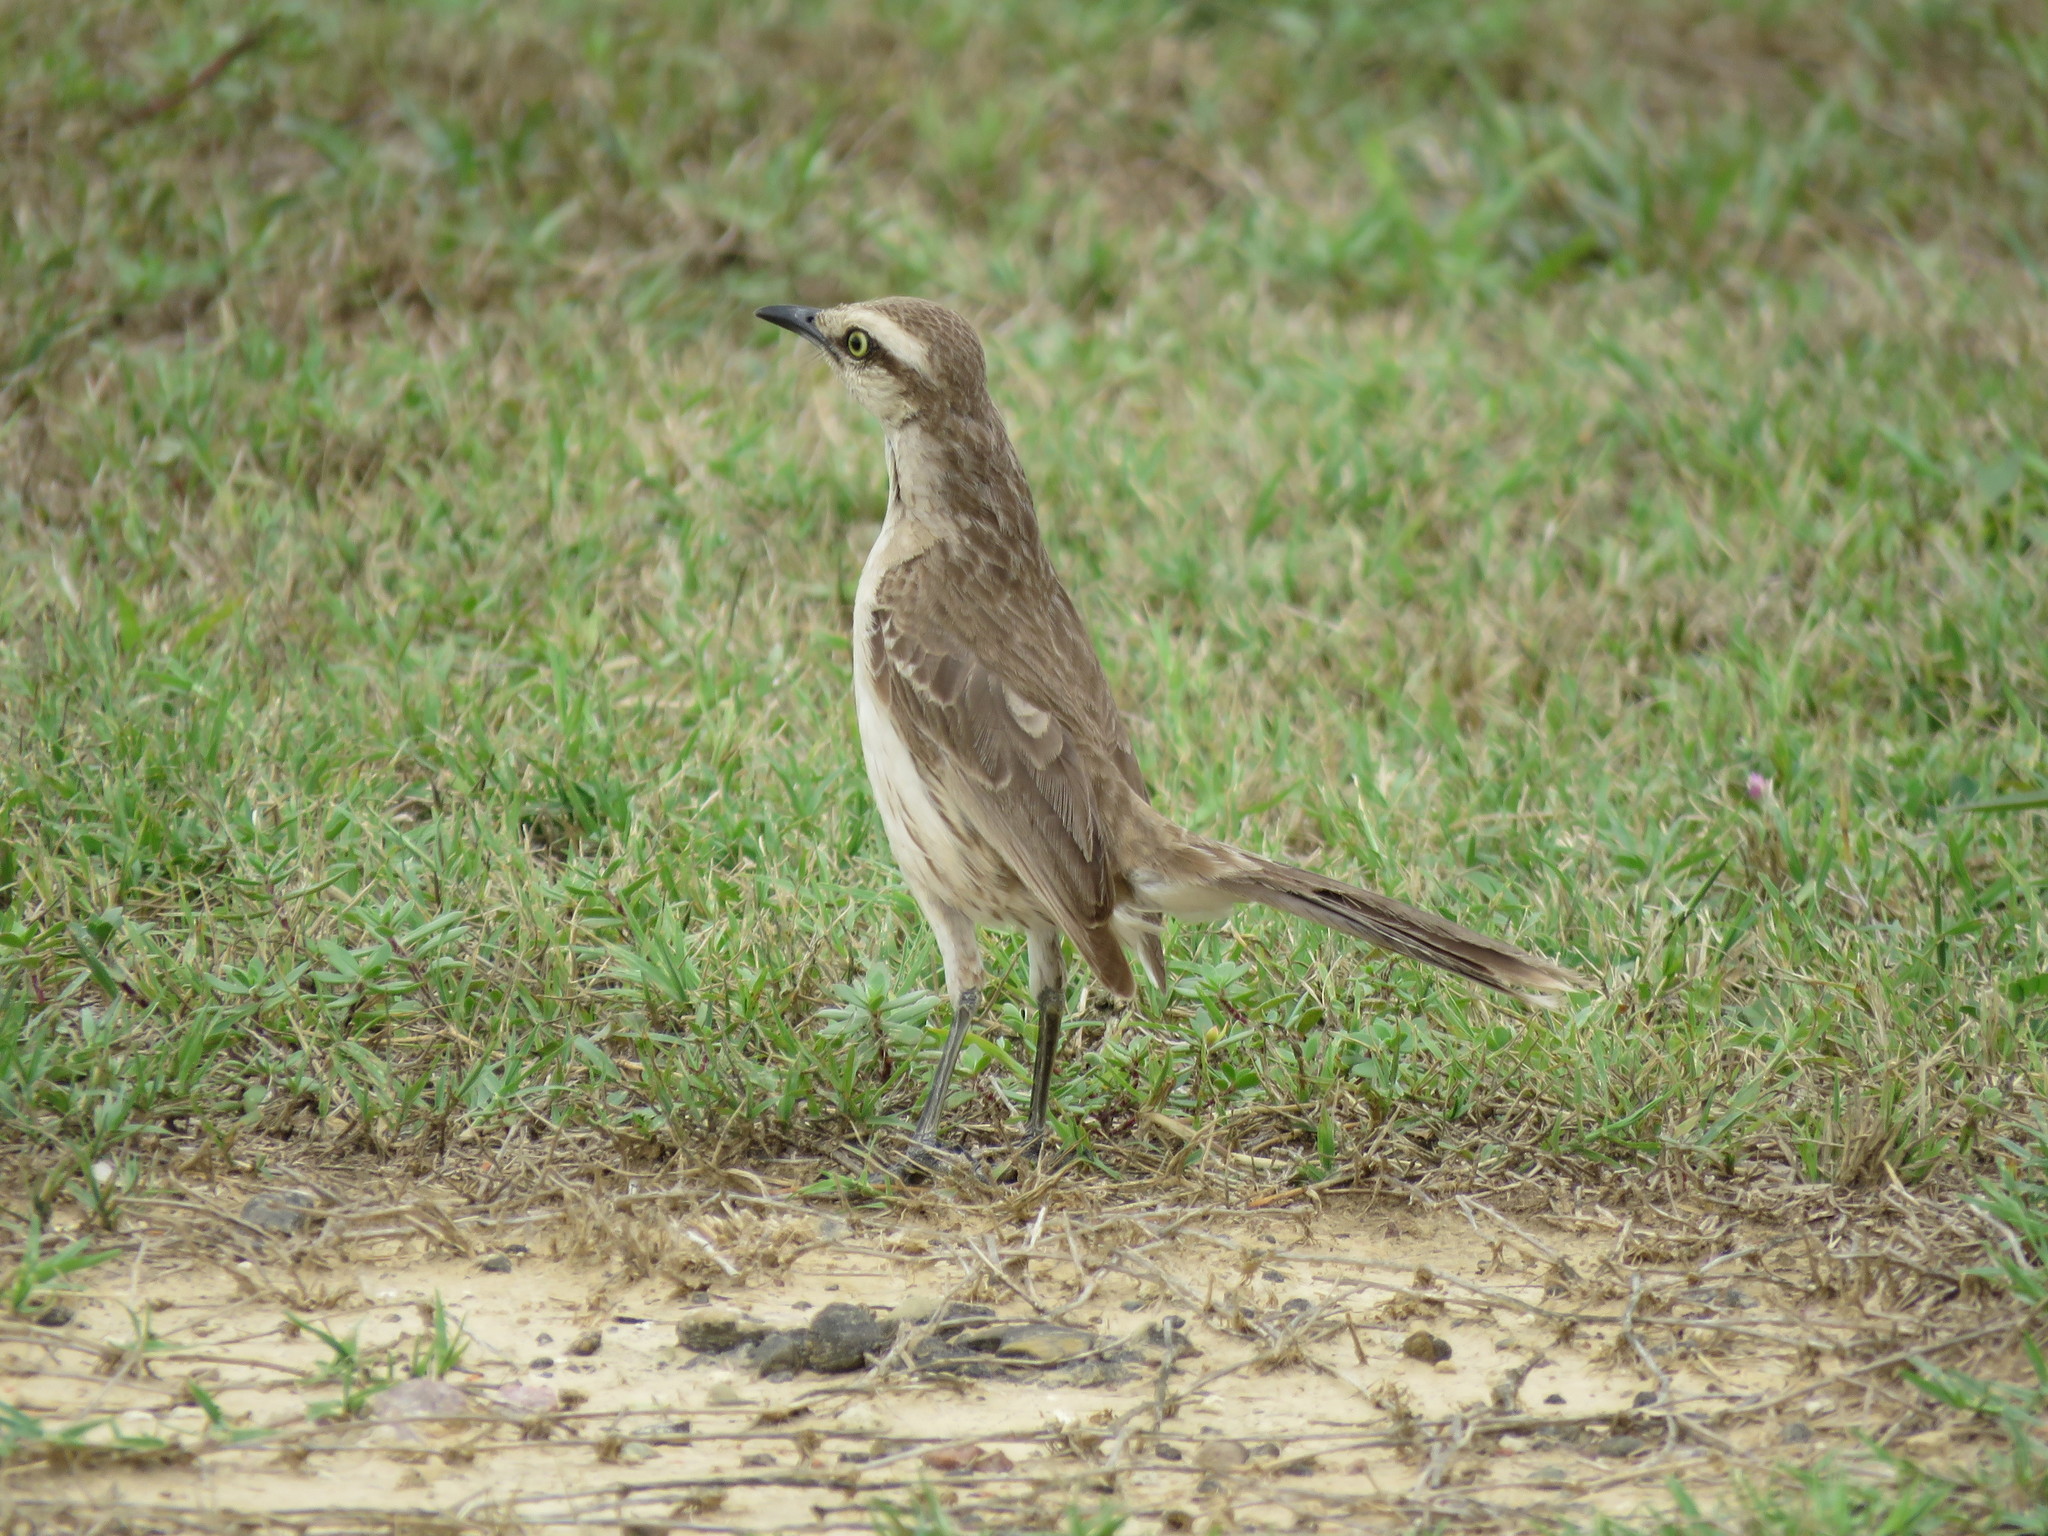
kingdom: Animalia
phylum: Chordata
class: Aves
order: Passeriformes
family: Mimidae
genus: Mimus
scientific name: Mimus saturninus
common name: Chalk-browed mockingbird
